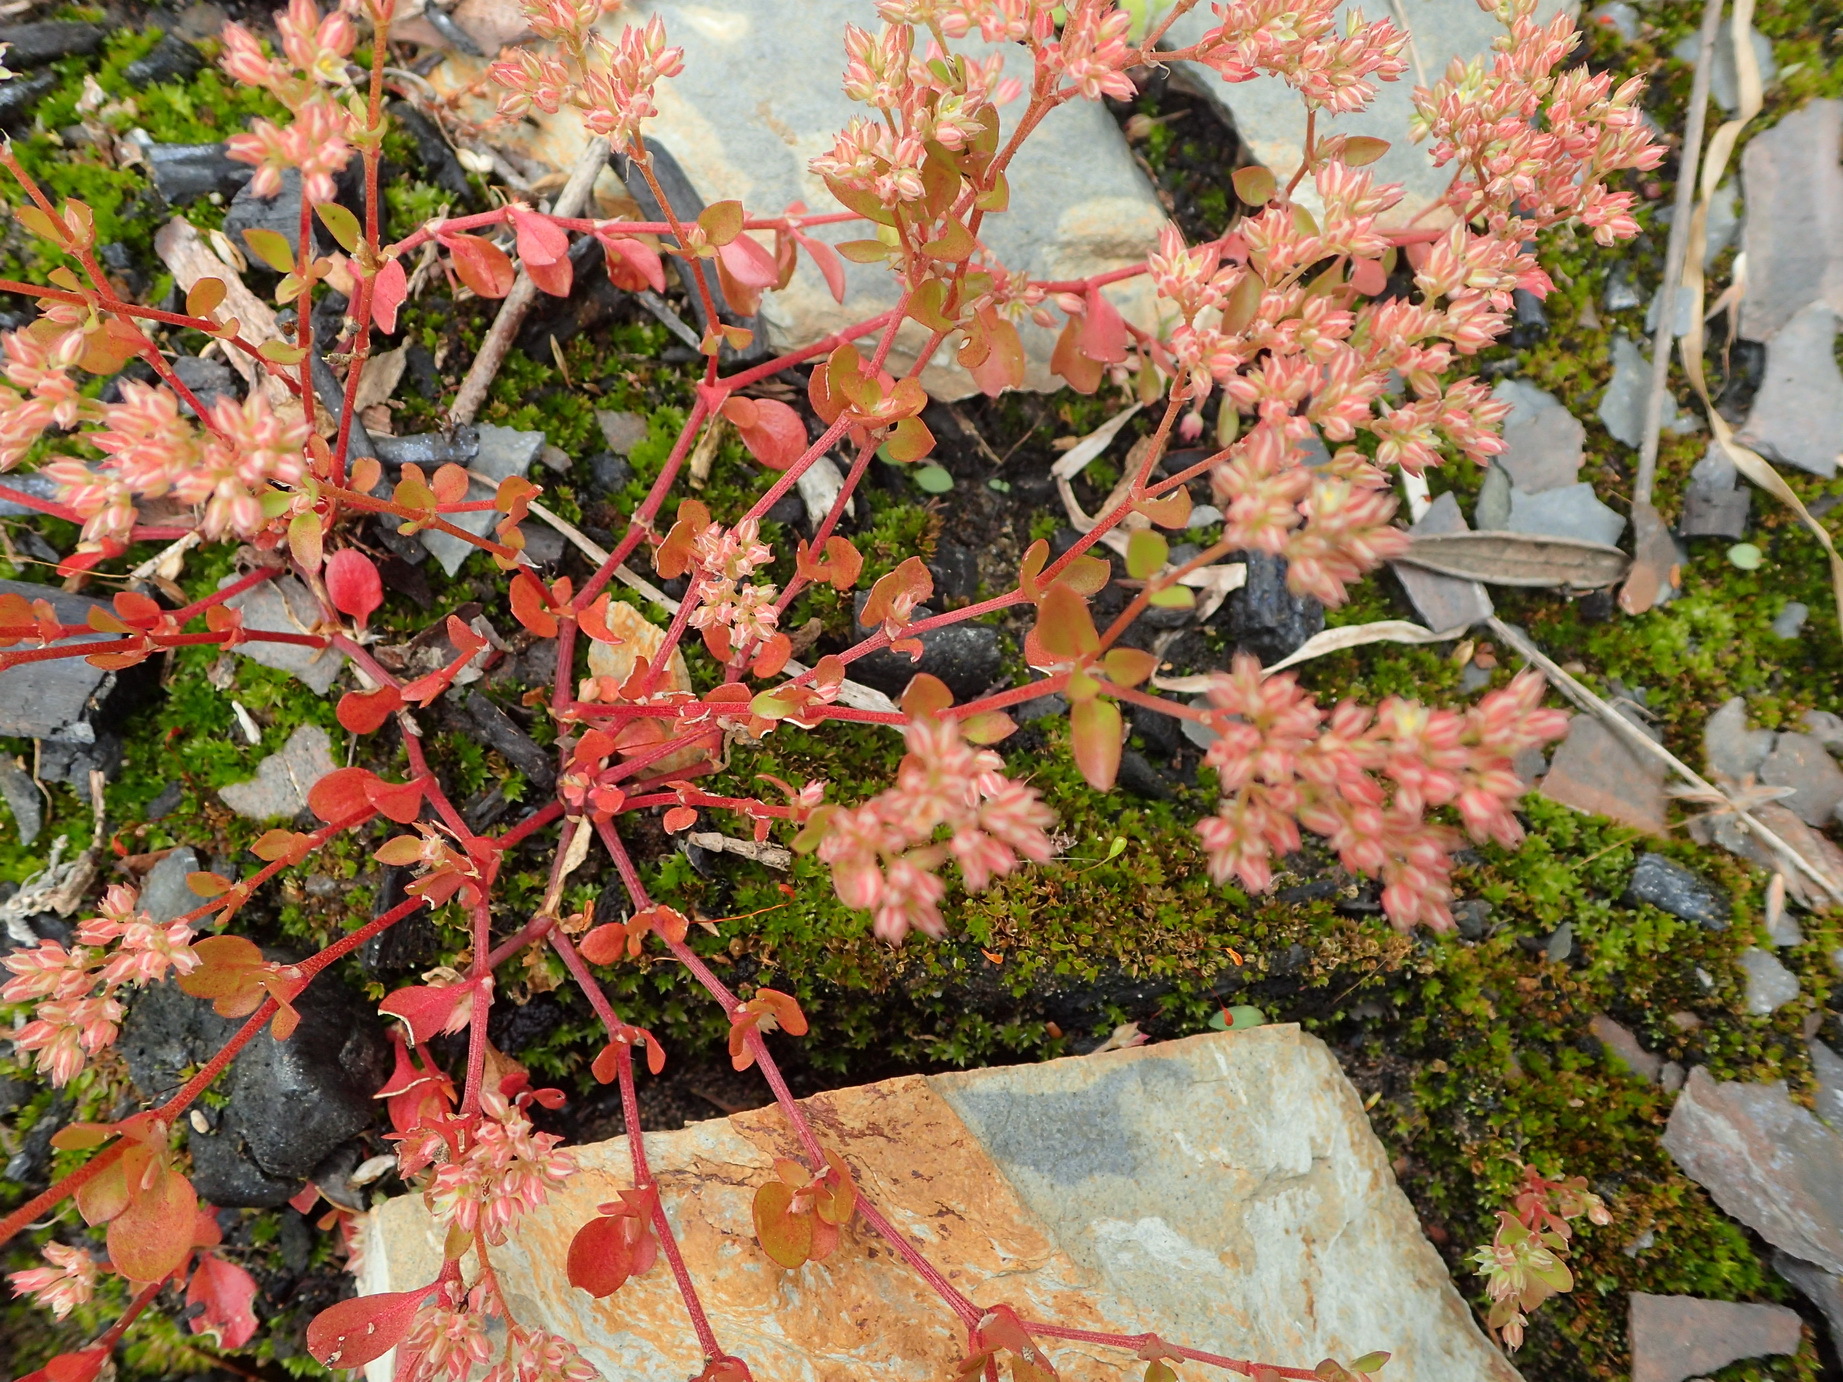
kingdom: Plantae
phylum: Tracheophyta
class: Magnoliopsida
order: Caryophyllales
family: Caryophyllaceae
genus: Polycarpon
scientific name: Polycarpon tetraphyllum
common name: Four-leaved all-seed
